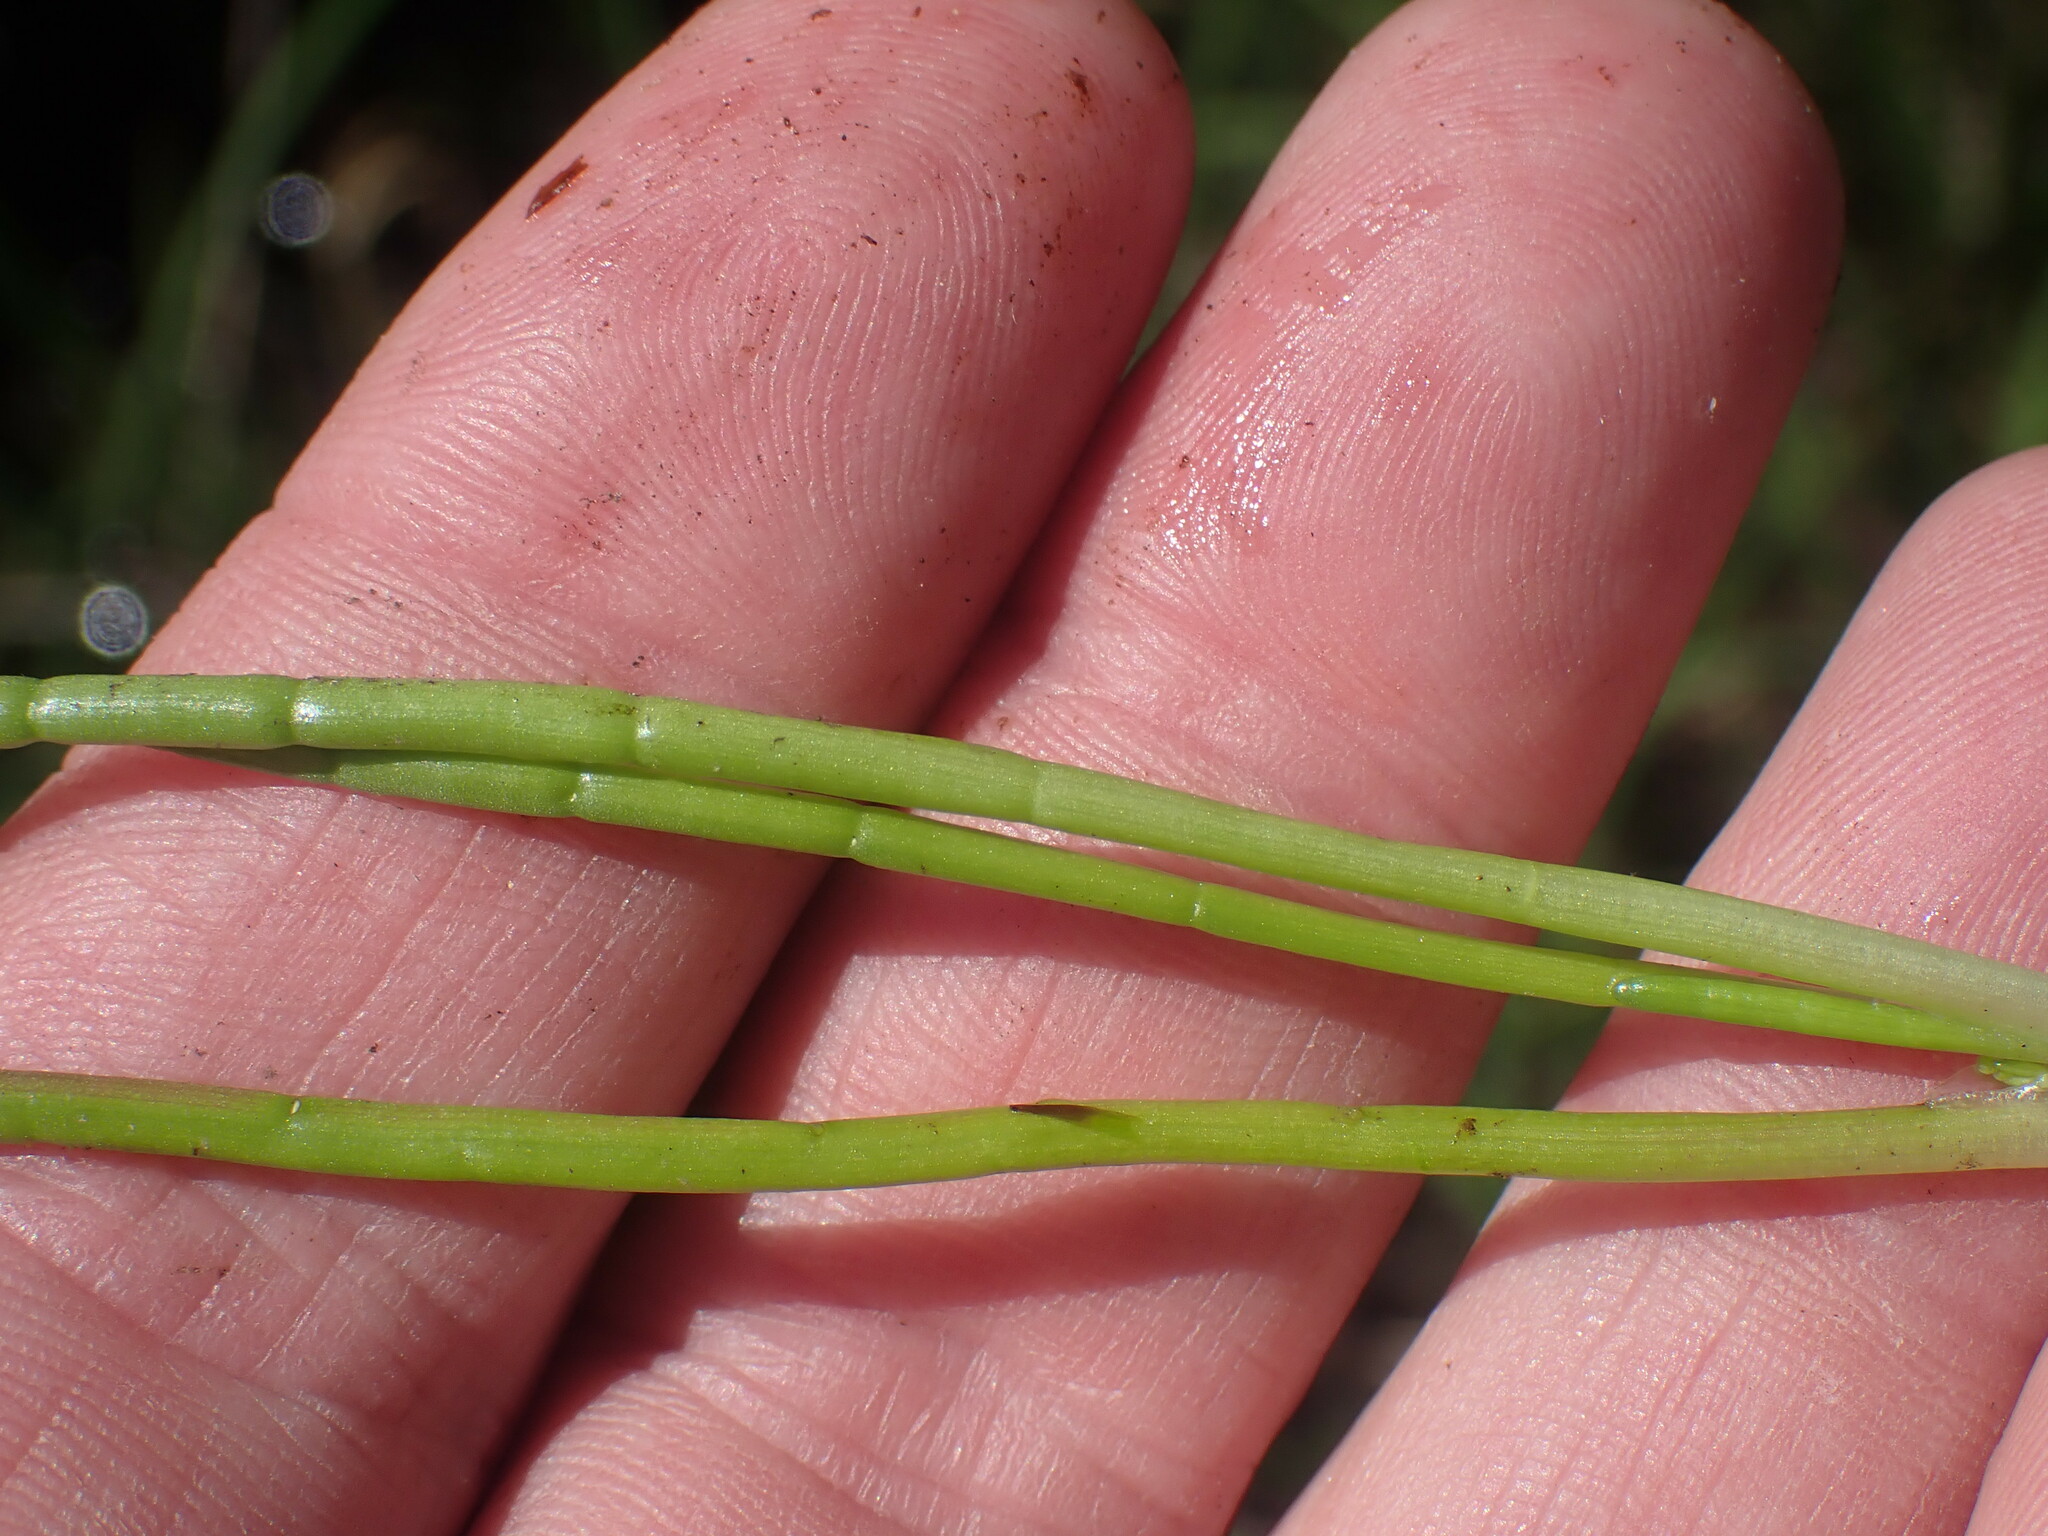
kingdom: Plantae
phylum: Tracheophyta
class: Magnoliopsida
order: Apiales
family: Apiaceae
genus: Lilaeopsis
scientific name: Lilaeopsis occidentalis
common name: Western grasswort
